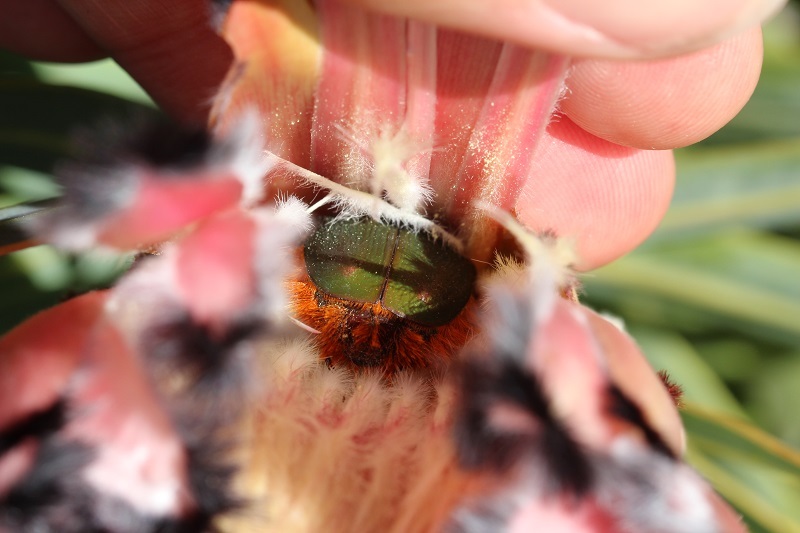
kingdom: Animalia
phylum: Arthropoda
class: Insecta
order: Coleoptera
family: Scarabaeidae
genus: Trichostetha
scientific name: Trichostetha fascicularis
